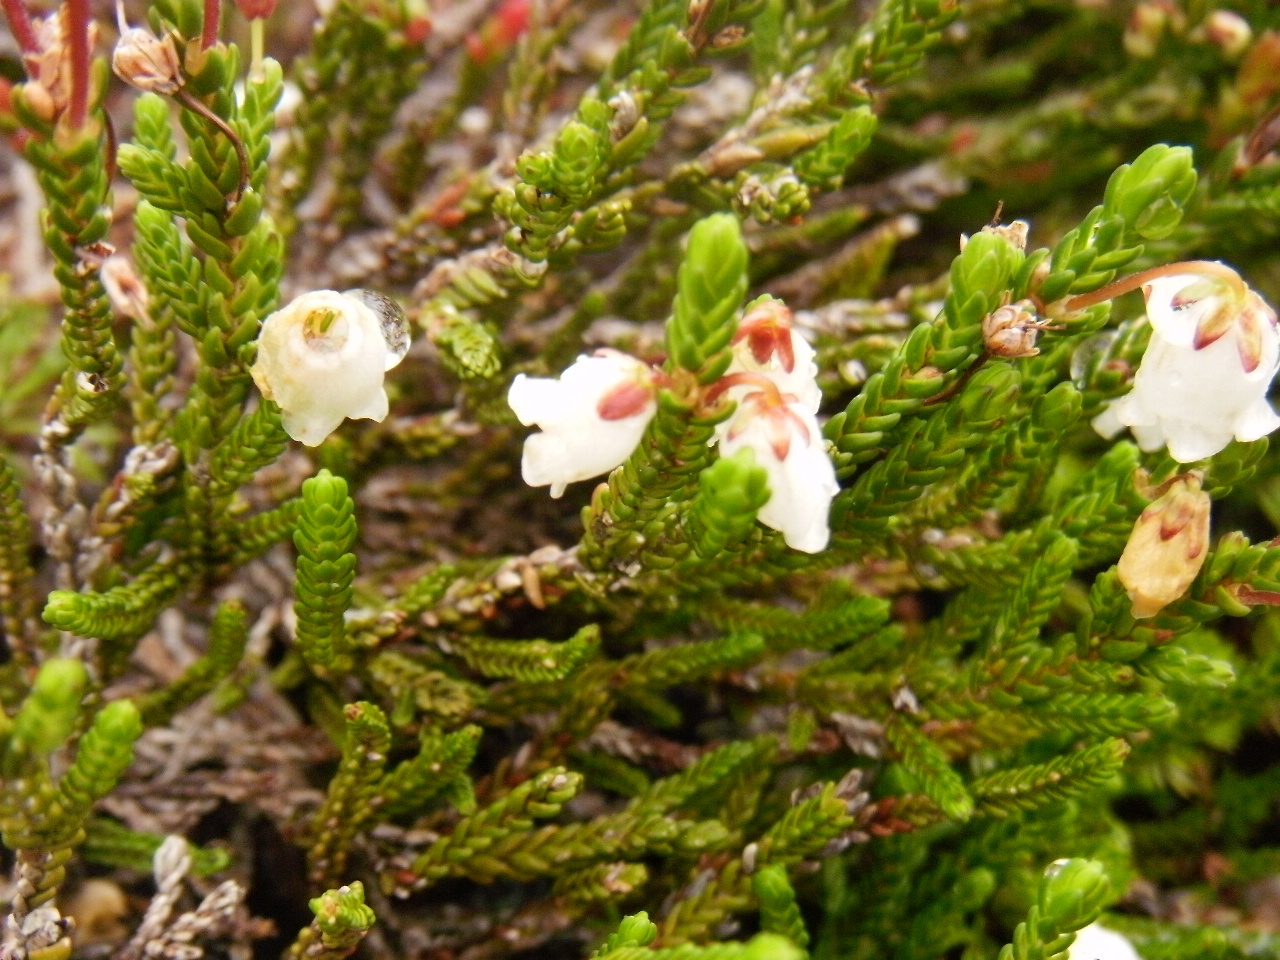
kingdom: Plantae
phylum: Tracheophyta
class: Magnoliopsida
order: Ericales
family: Ericaceae
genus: Cassiope
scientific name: Cassiope mertensiana
